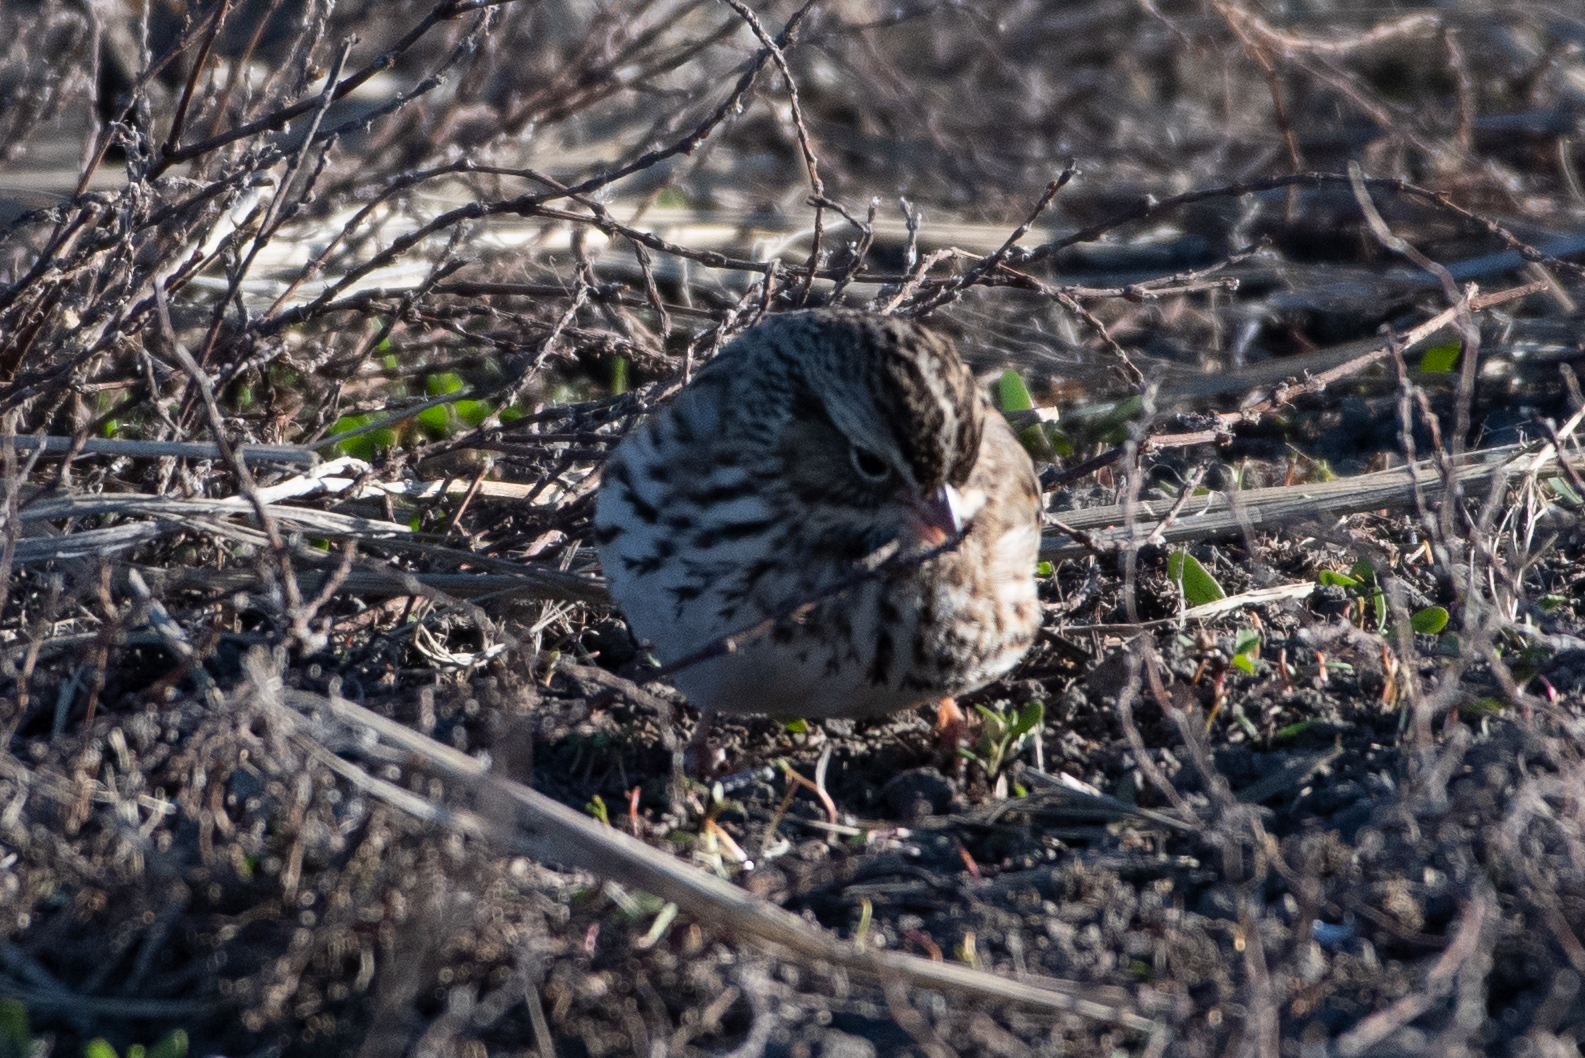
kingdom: Animalia
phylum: Chordata
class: Aves
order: Passeriformes
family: Passerellidae
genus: Passerculus
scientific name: Passerculus sandwichensis
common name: Savannah sparrow
